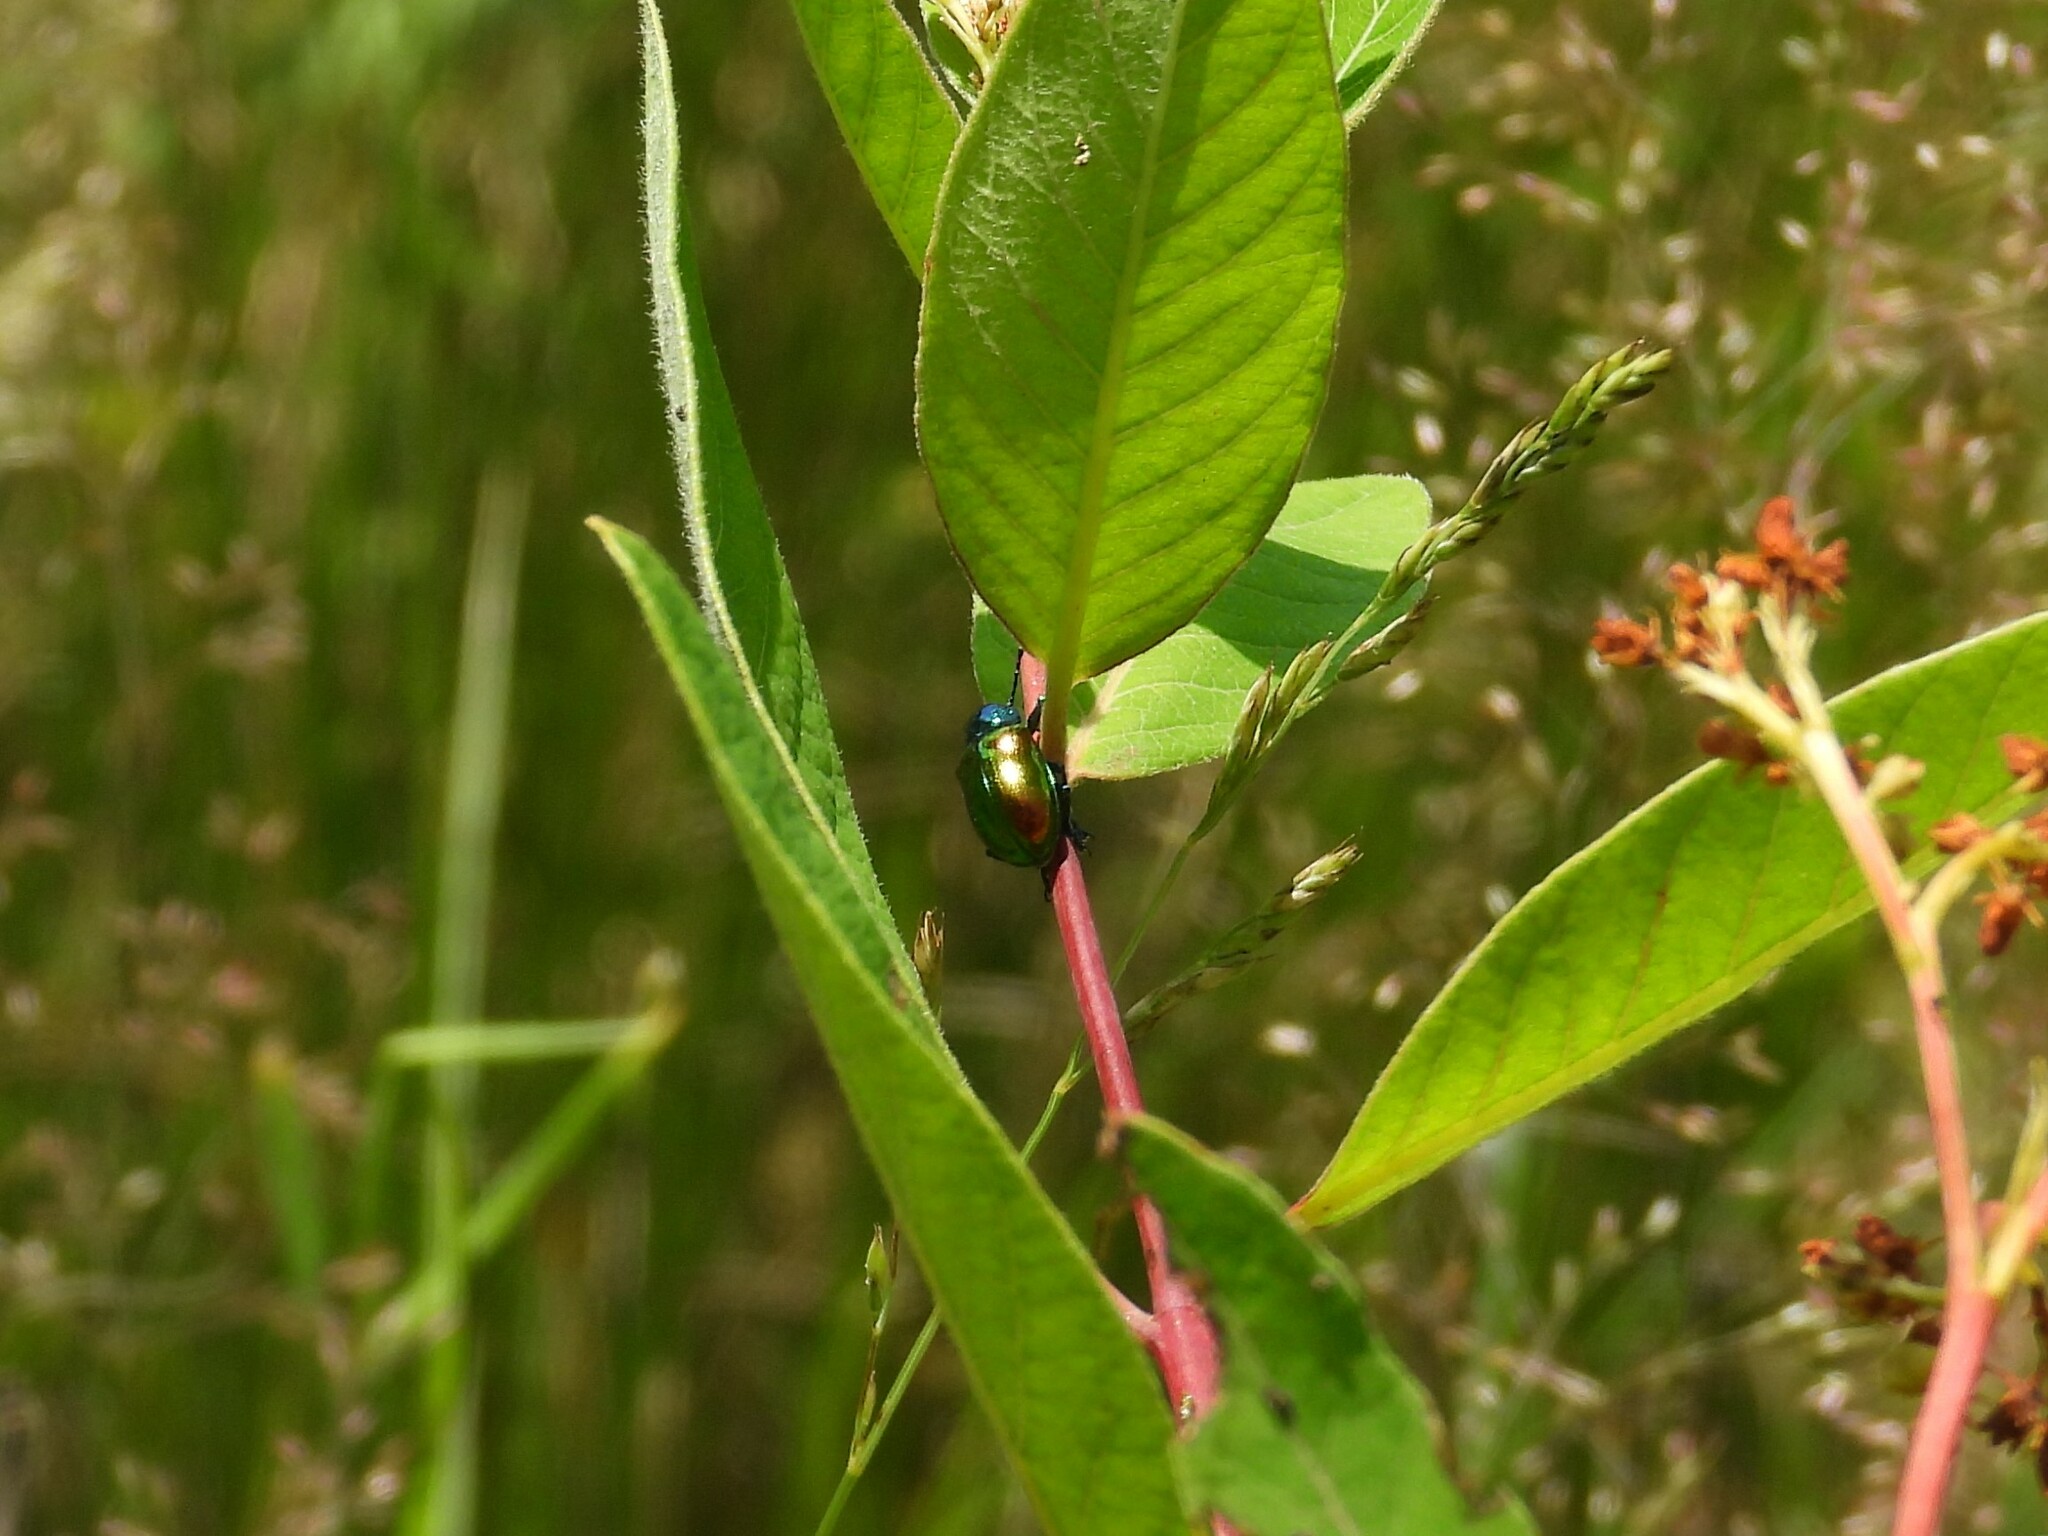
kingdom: Animalia
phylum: Arthropoda
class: Insecta
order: Coleoptera
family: Chrysomelidae
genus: Chrysochus
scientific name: Chrysochus auratus
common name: Dogbane leaf beetle
